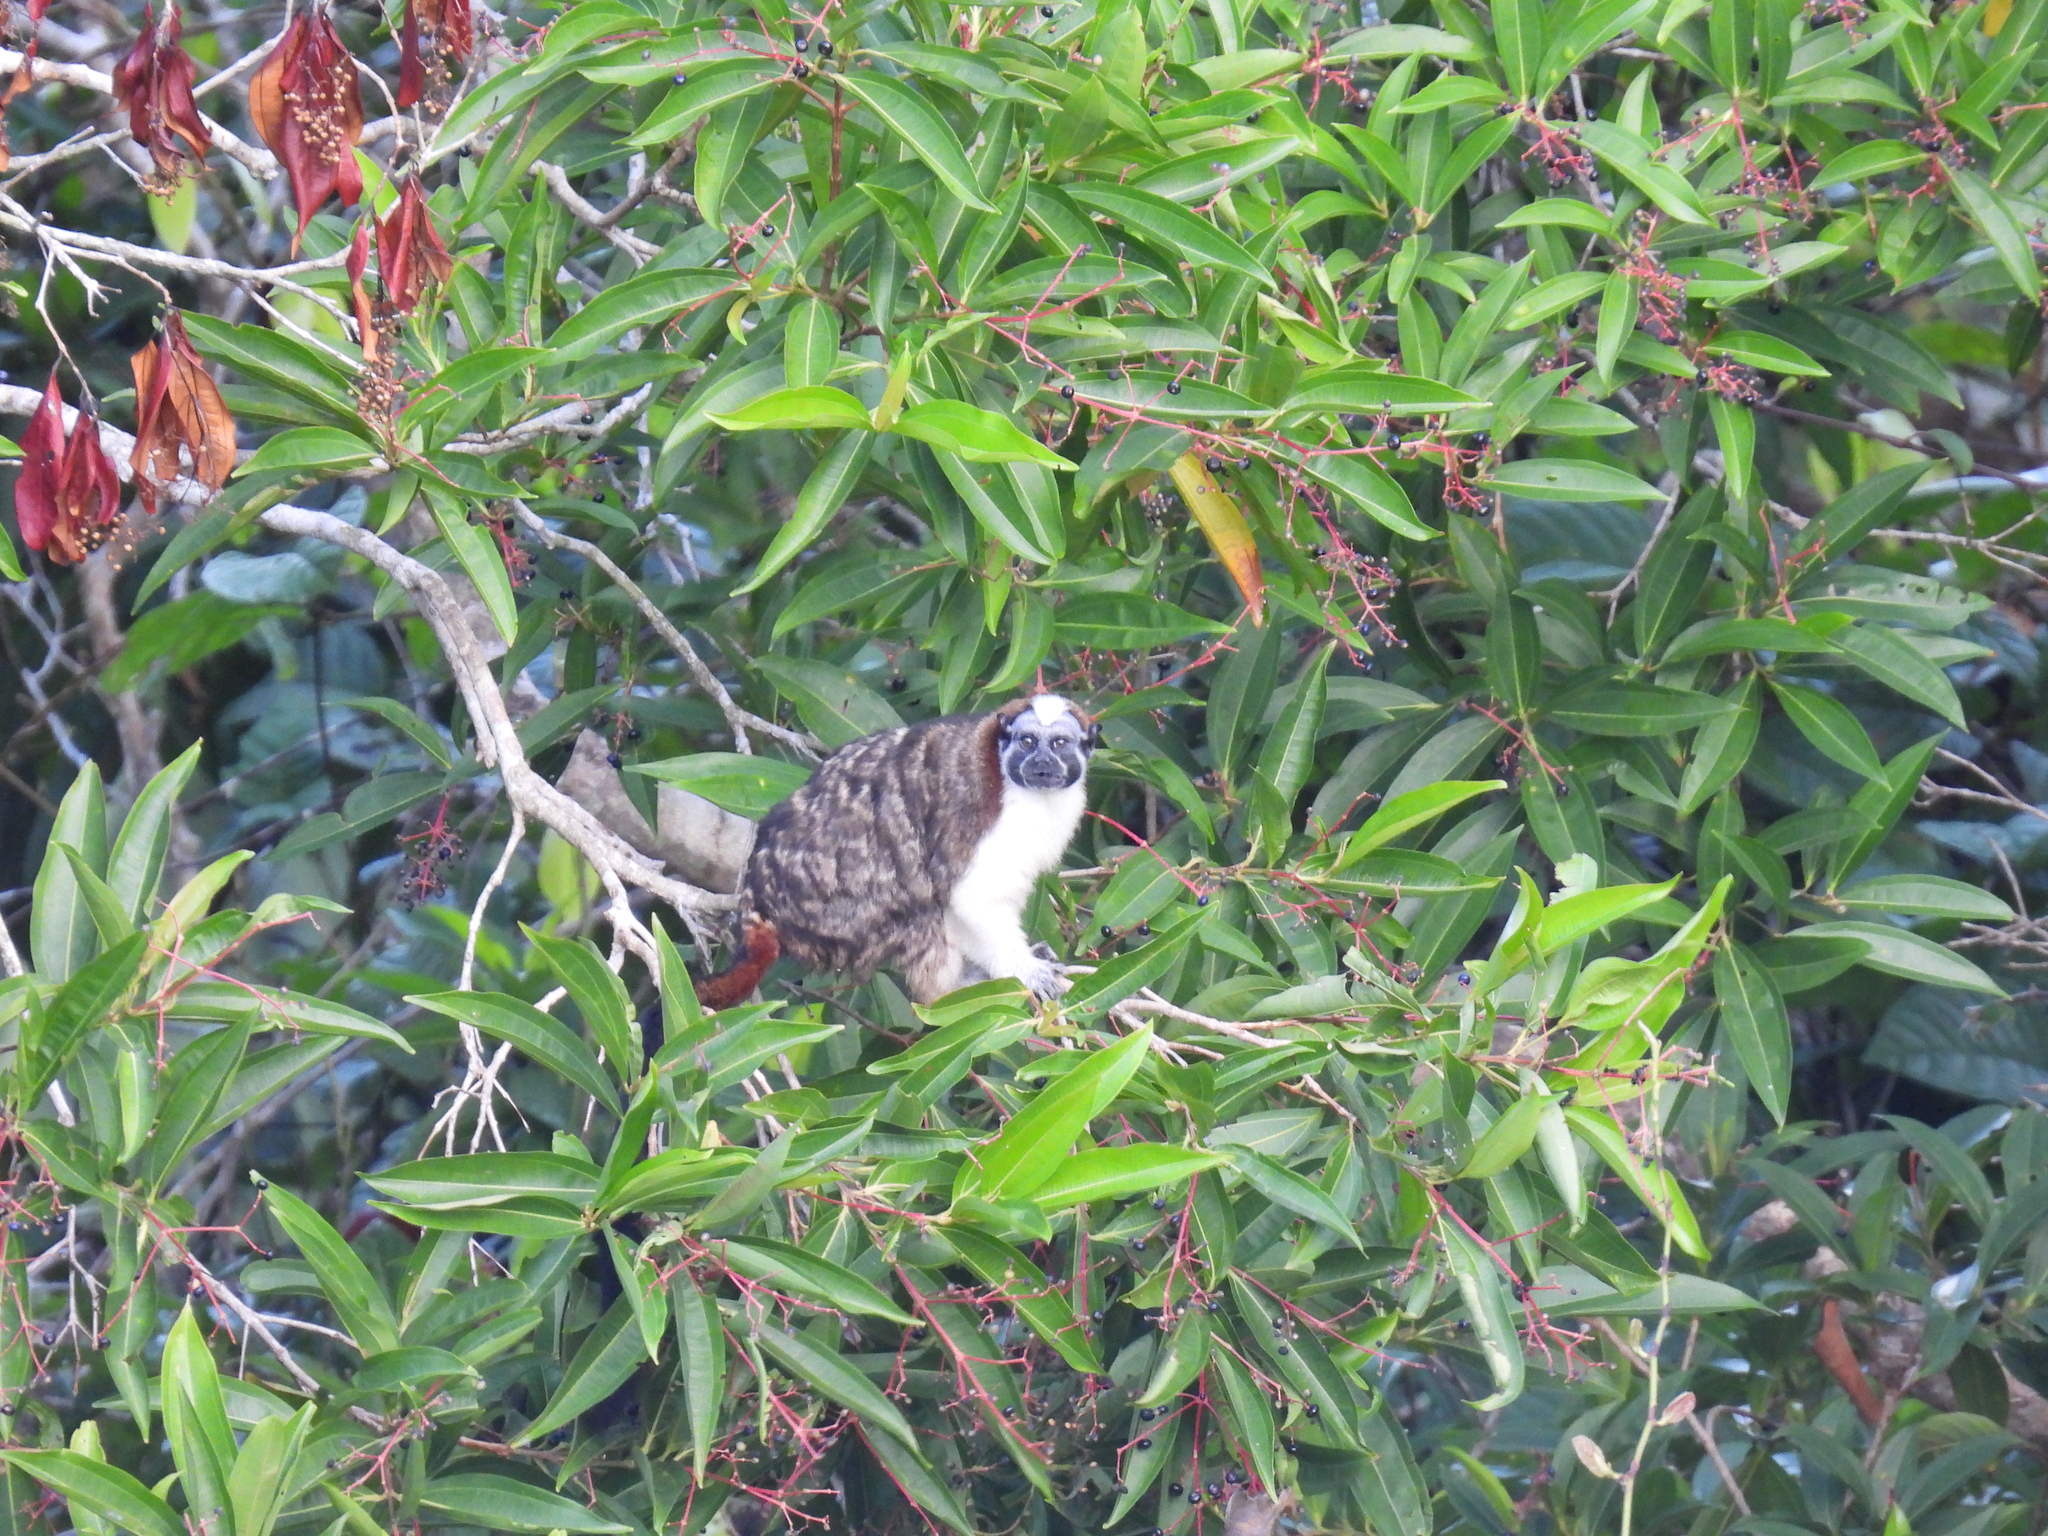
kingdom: Animalia
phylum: Chordata
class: Mammalia
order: Primates
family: Callitrichidae
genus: Saguinus
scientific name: Saguinus geoffroyi
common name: Geoffroy s tamarin
